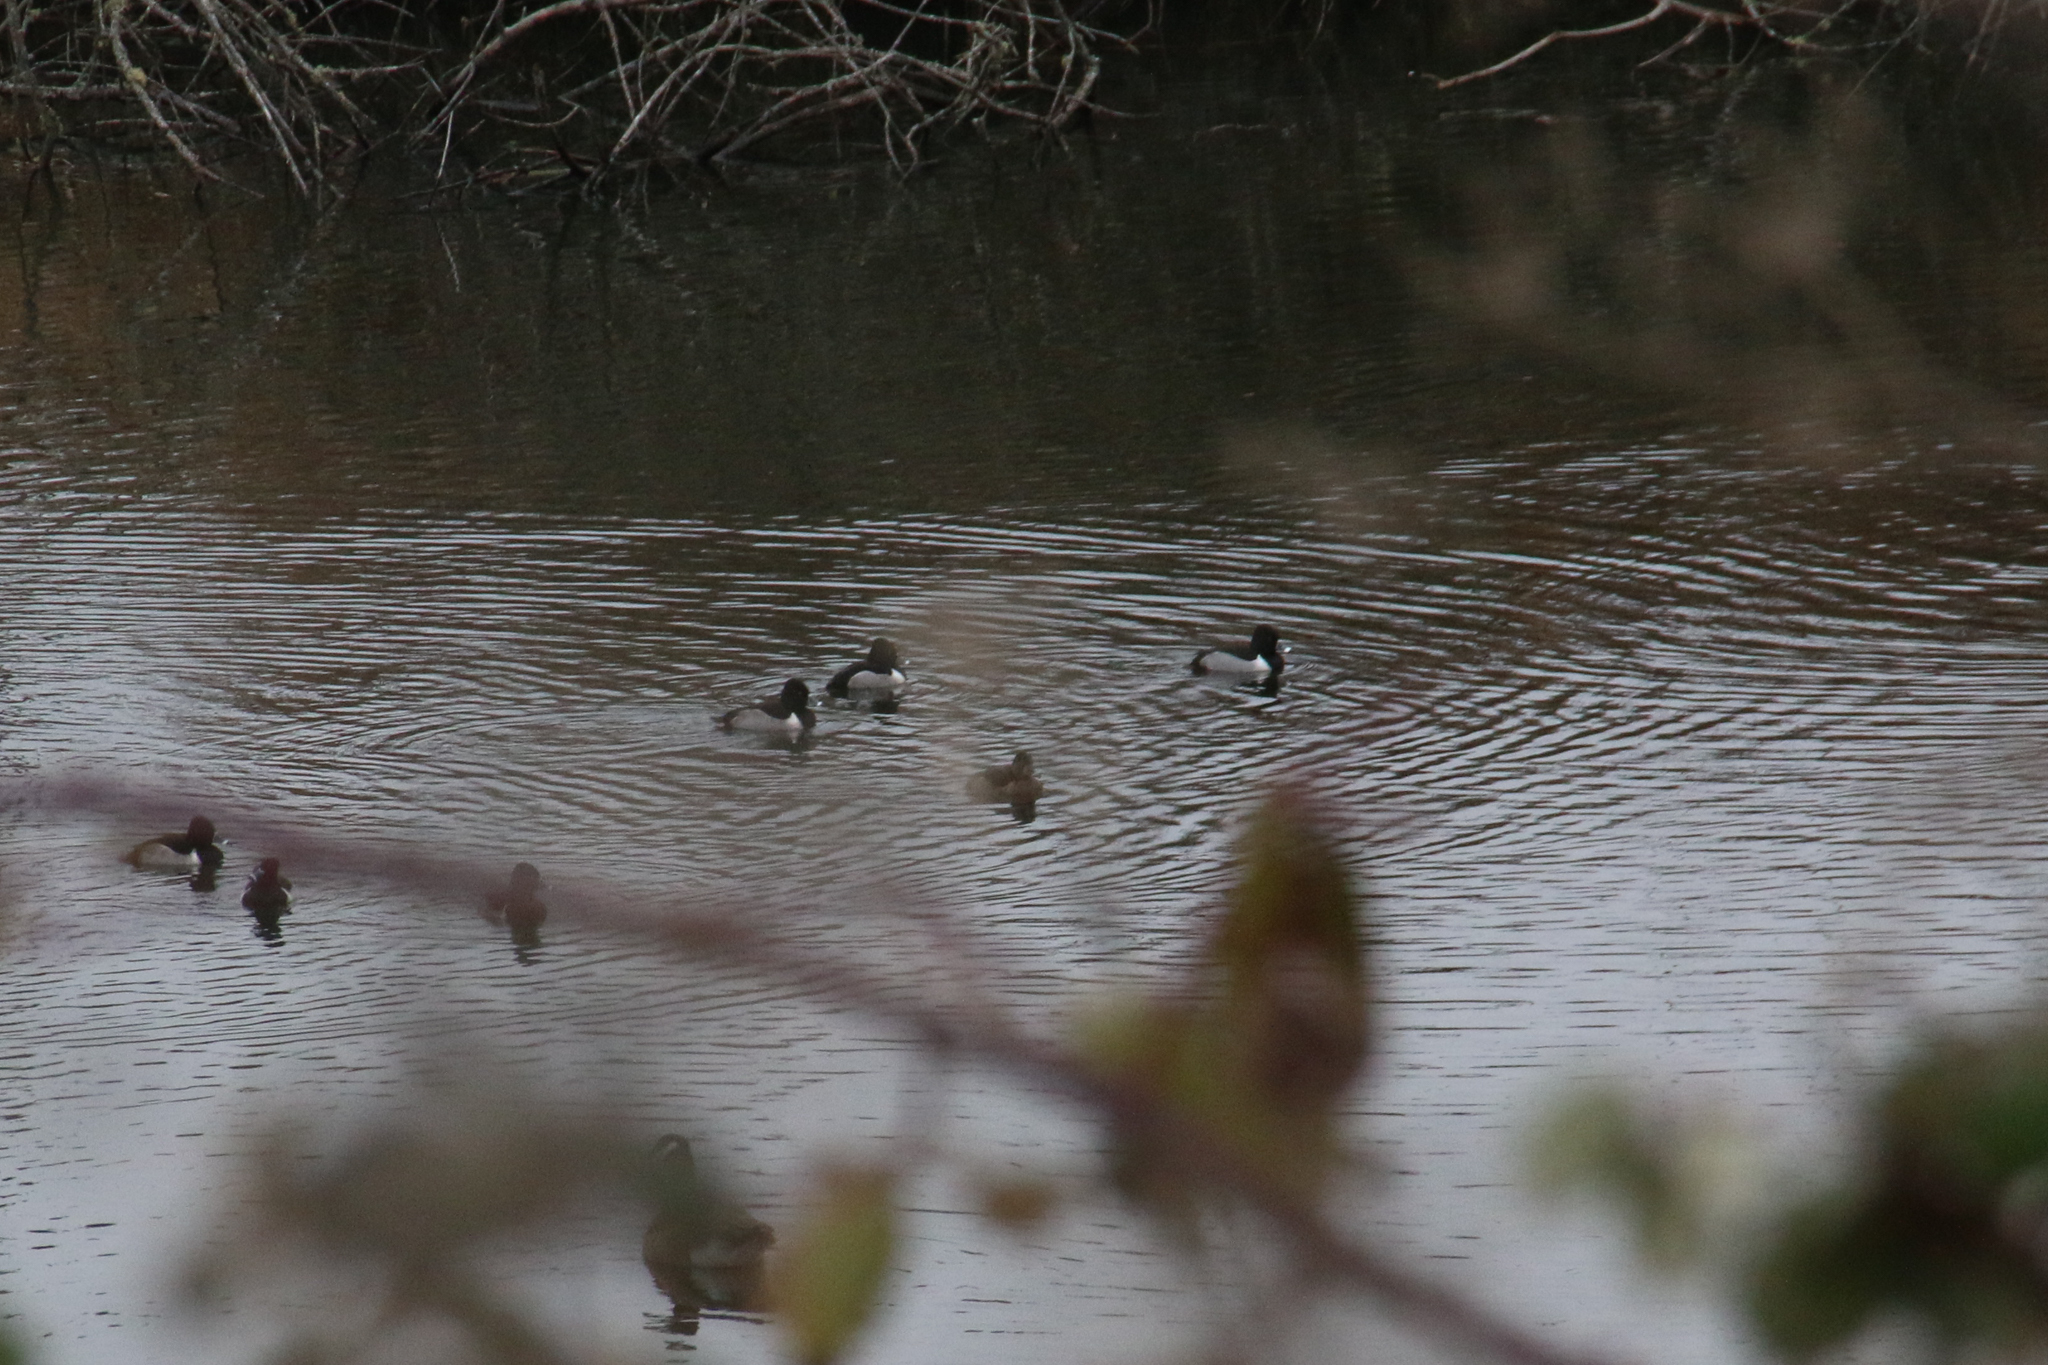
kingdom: Animalia
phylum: Chordata
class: Aves
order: Anseriformes
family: Anatidae
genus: Aythya
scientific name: Aythya collaris
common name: Ring-necked duck
